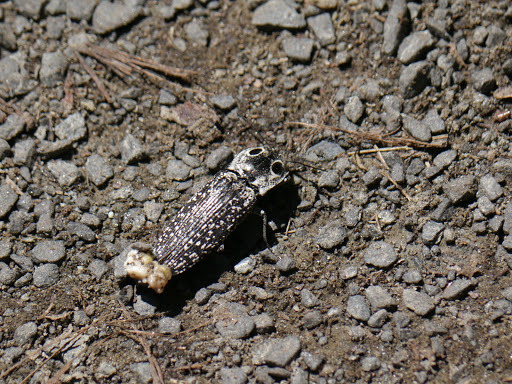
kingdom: Animalia
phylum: Arthropoda
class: Insecta
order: Coleoptera
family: Elateridae
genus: Alaus
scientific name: Alaus oculatus
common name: Eastern eyed click beetle
